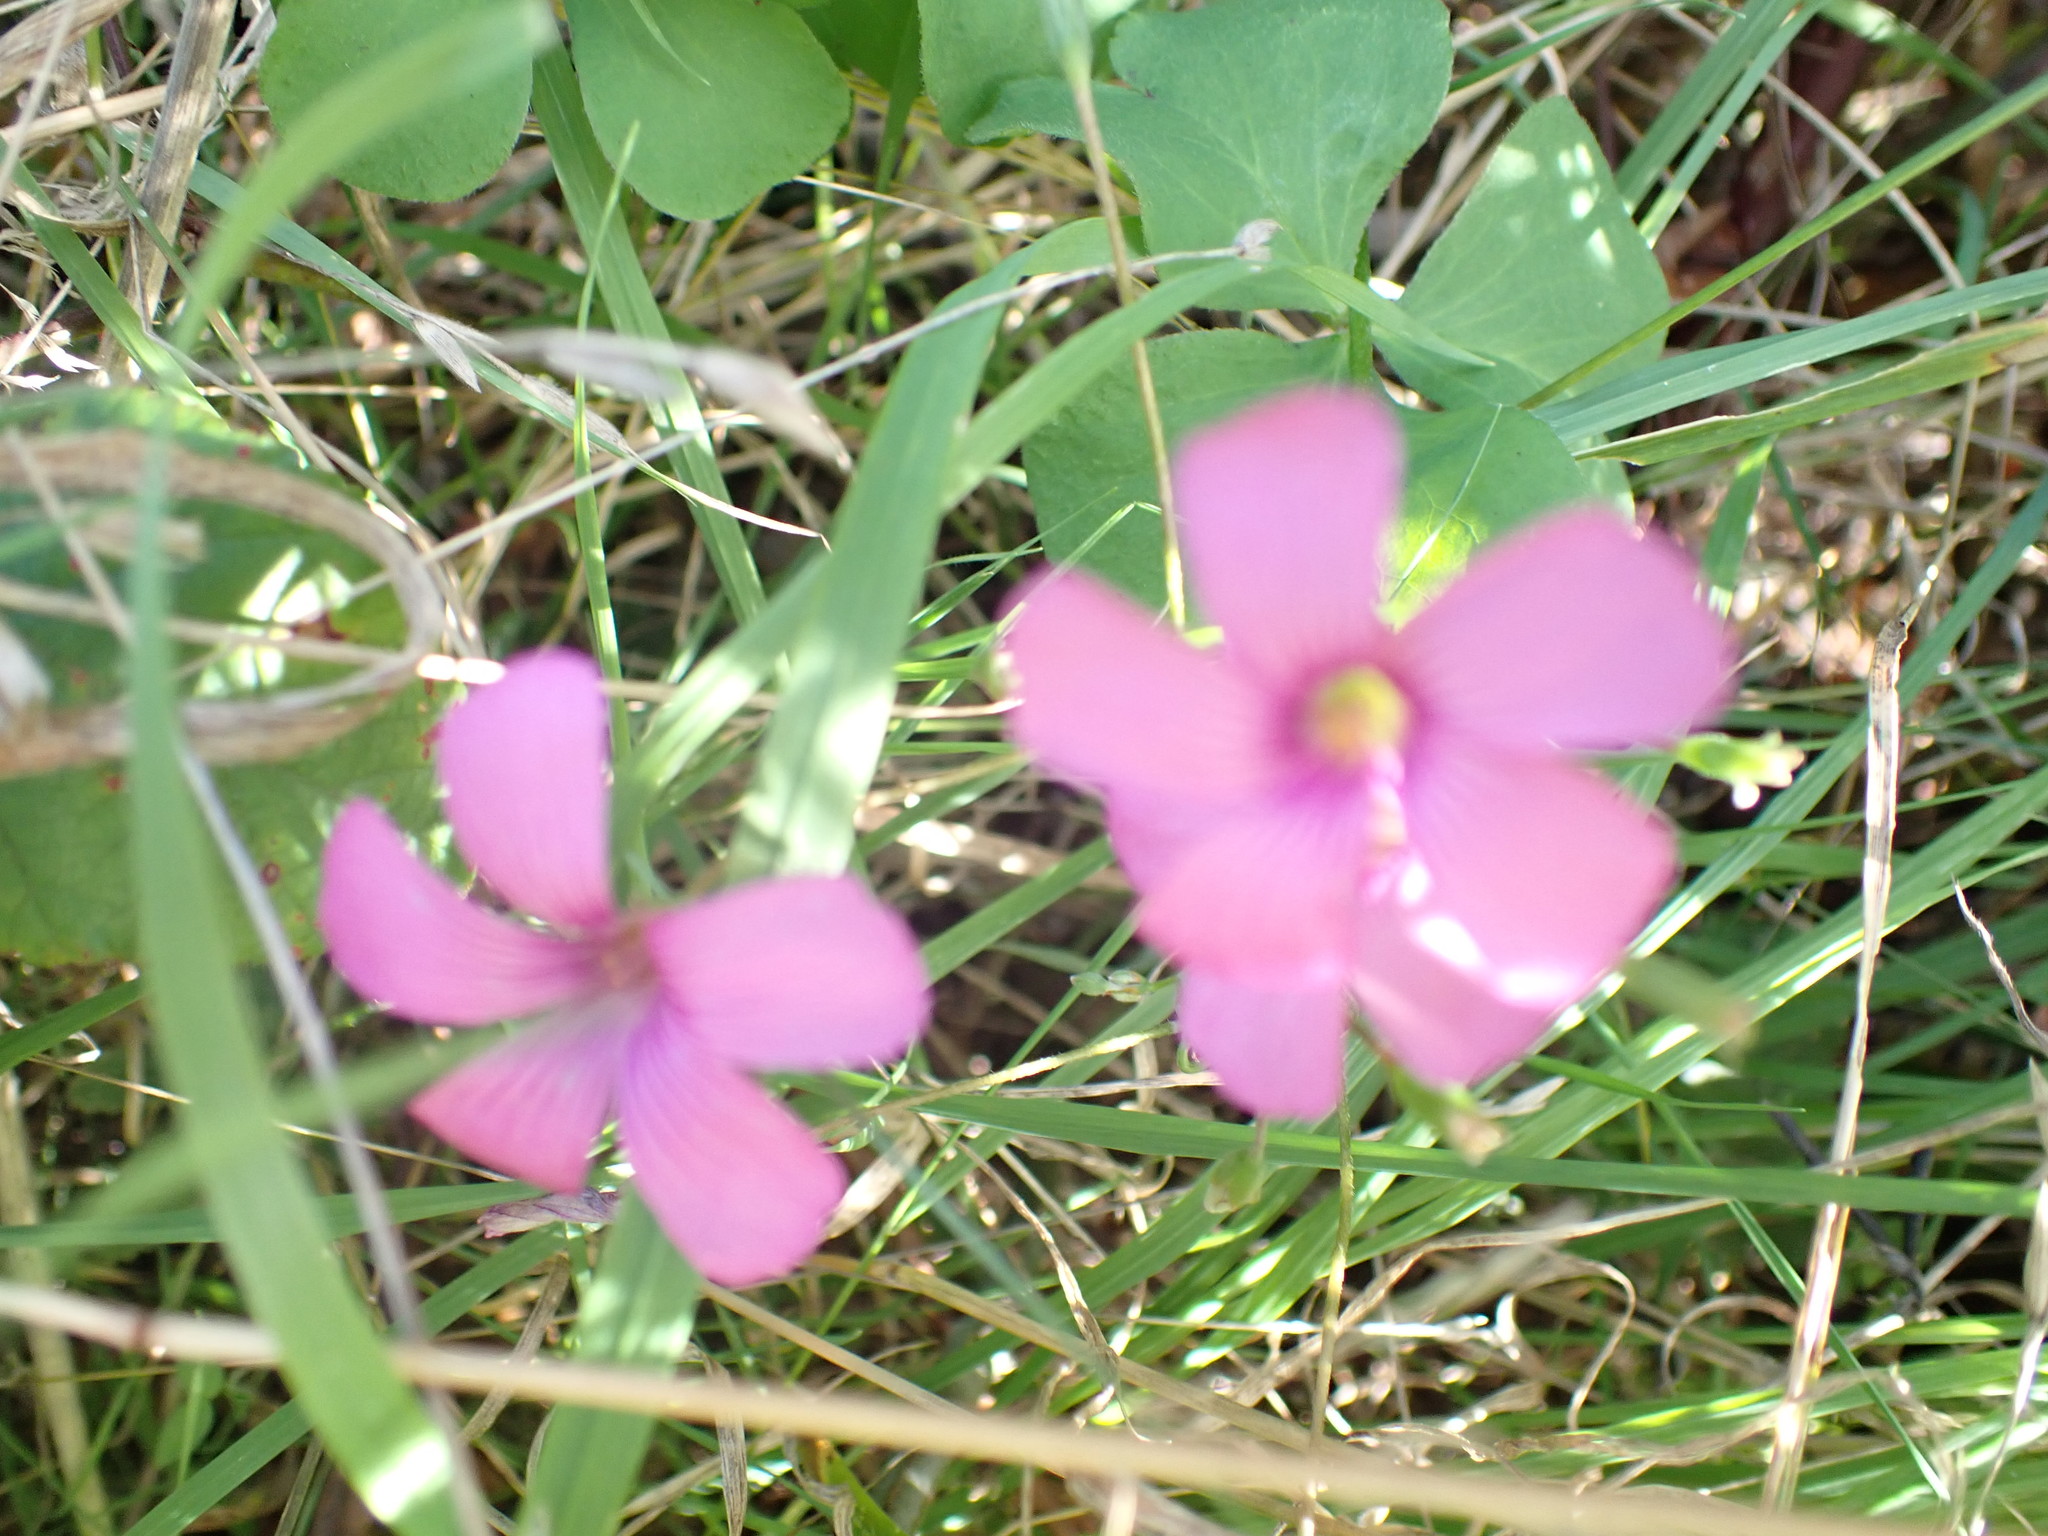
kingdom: Plantae
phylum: Tracheophyta
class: Magnoliopsida
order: Oxalidales
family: Oxalidaceae
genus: Oxalis
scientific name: Oxalis articulata
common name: Pink-sorrel
